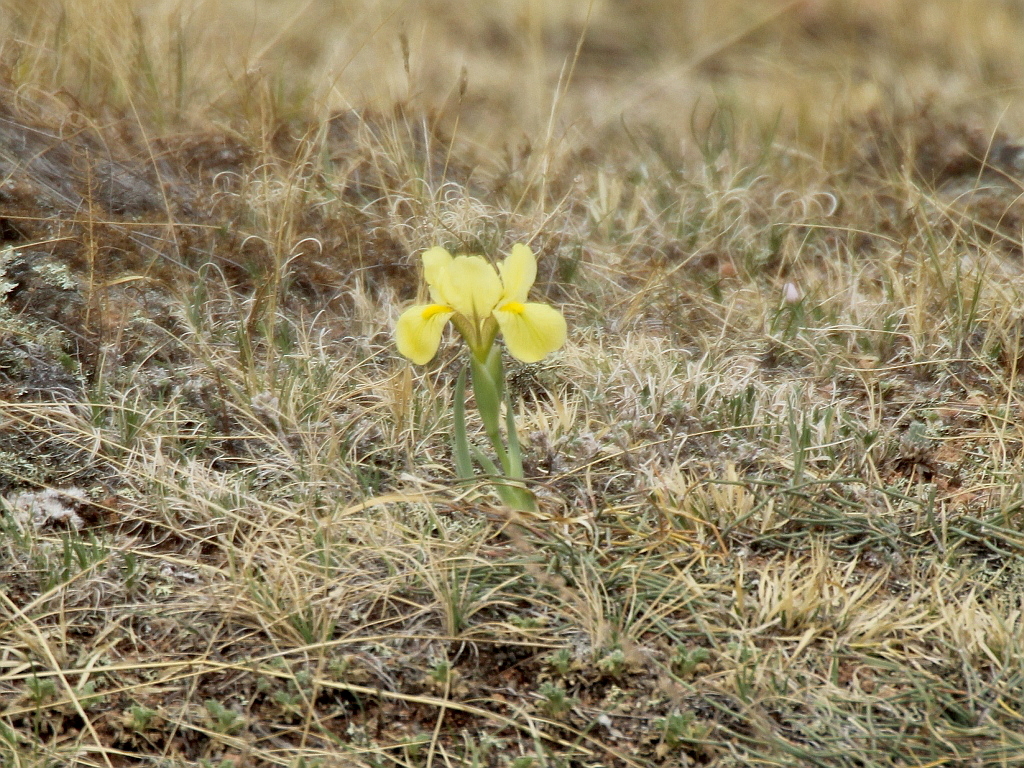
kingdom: Plantae
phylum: Tracheophyta
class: Liliopsida
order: Asparagales
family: Iridaceae
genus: Iris
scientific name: Iris humilis
